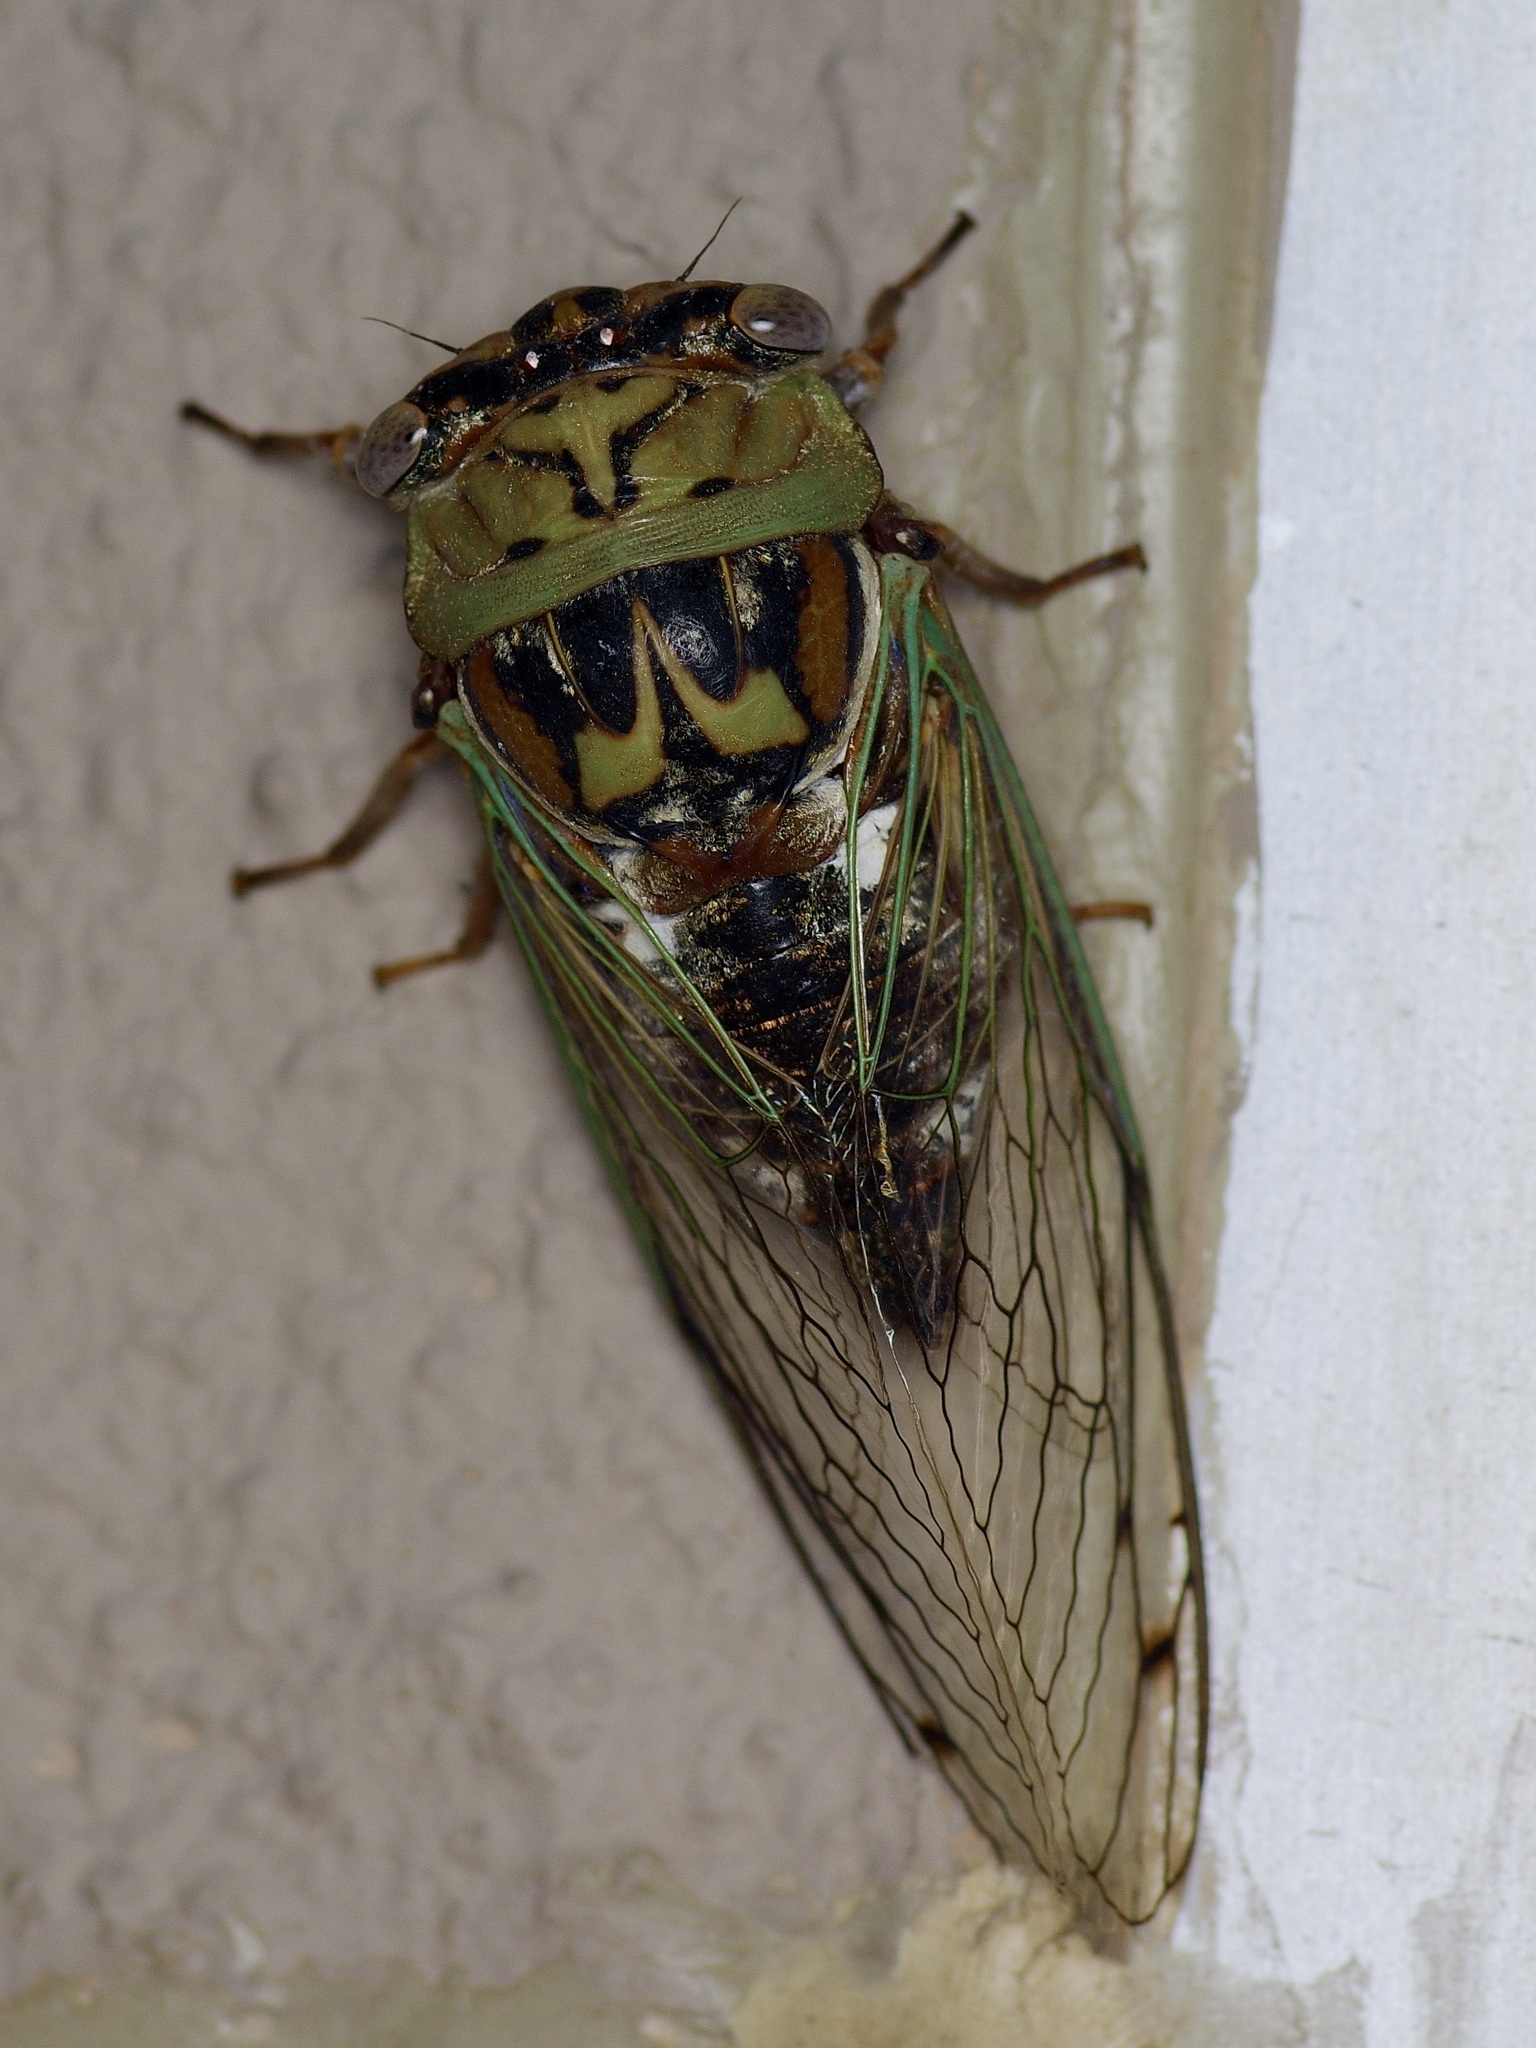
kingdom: Animalia
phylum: Arthropoda
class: Insecta
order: Hemiptera
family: Cicadidae
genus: Megatibicen
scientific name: Megatibicen resh
